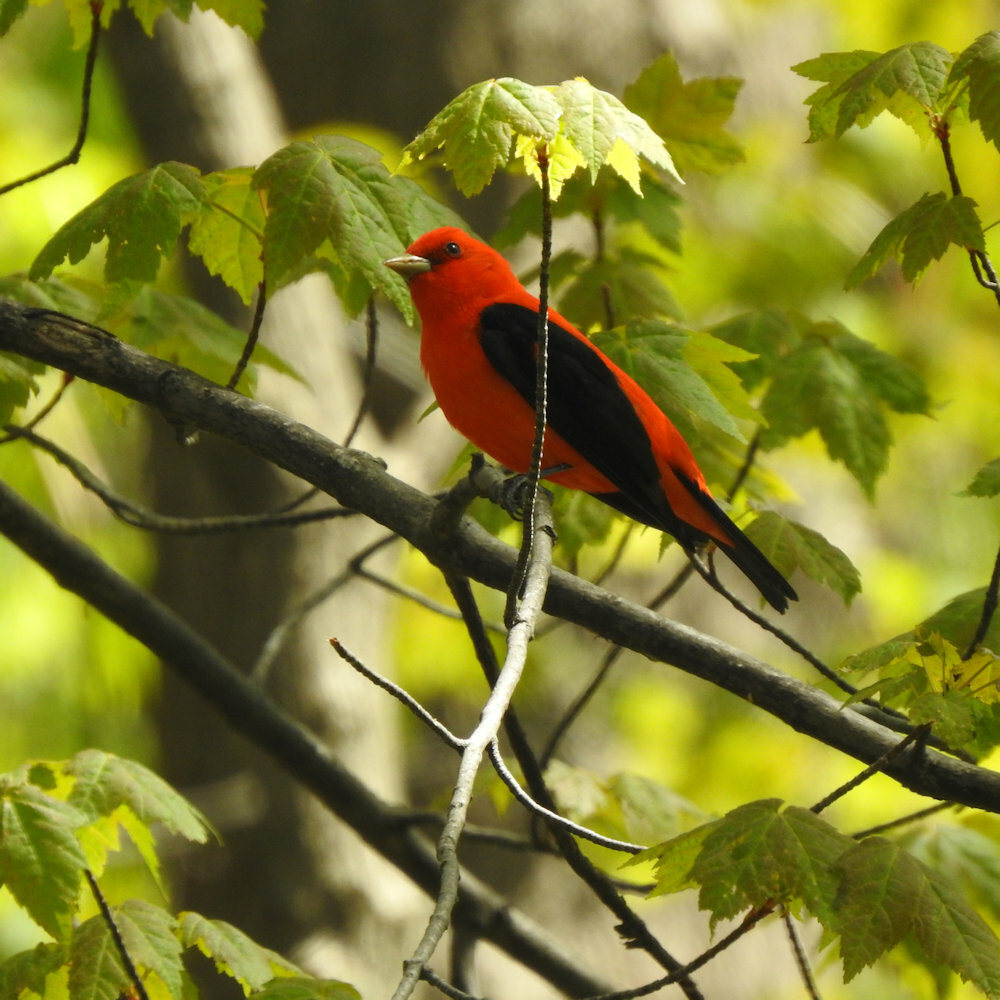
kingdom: Animalia
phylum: Chordata
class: Aves
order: Passeriformes
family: Cardinalidae
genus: Piranga
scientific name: Piranga olivacea
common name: Scarlet tanager
